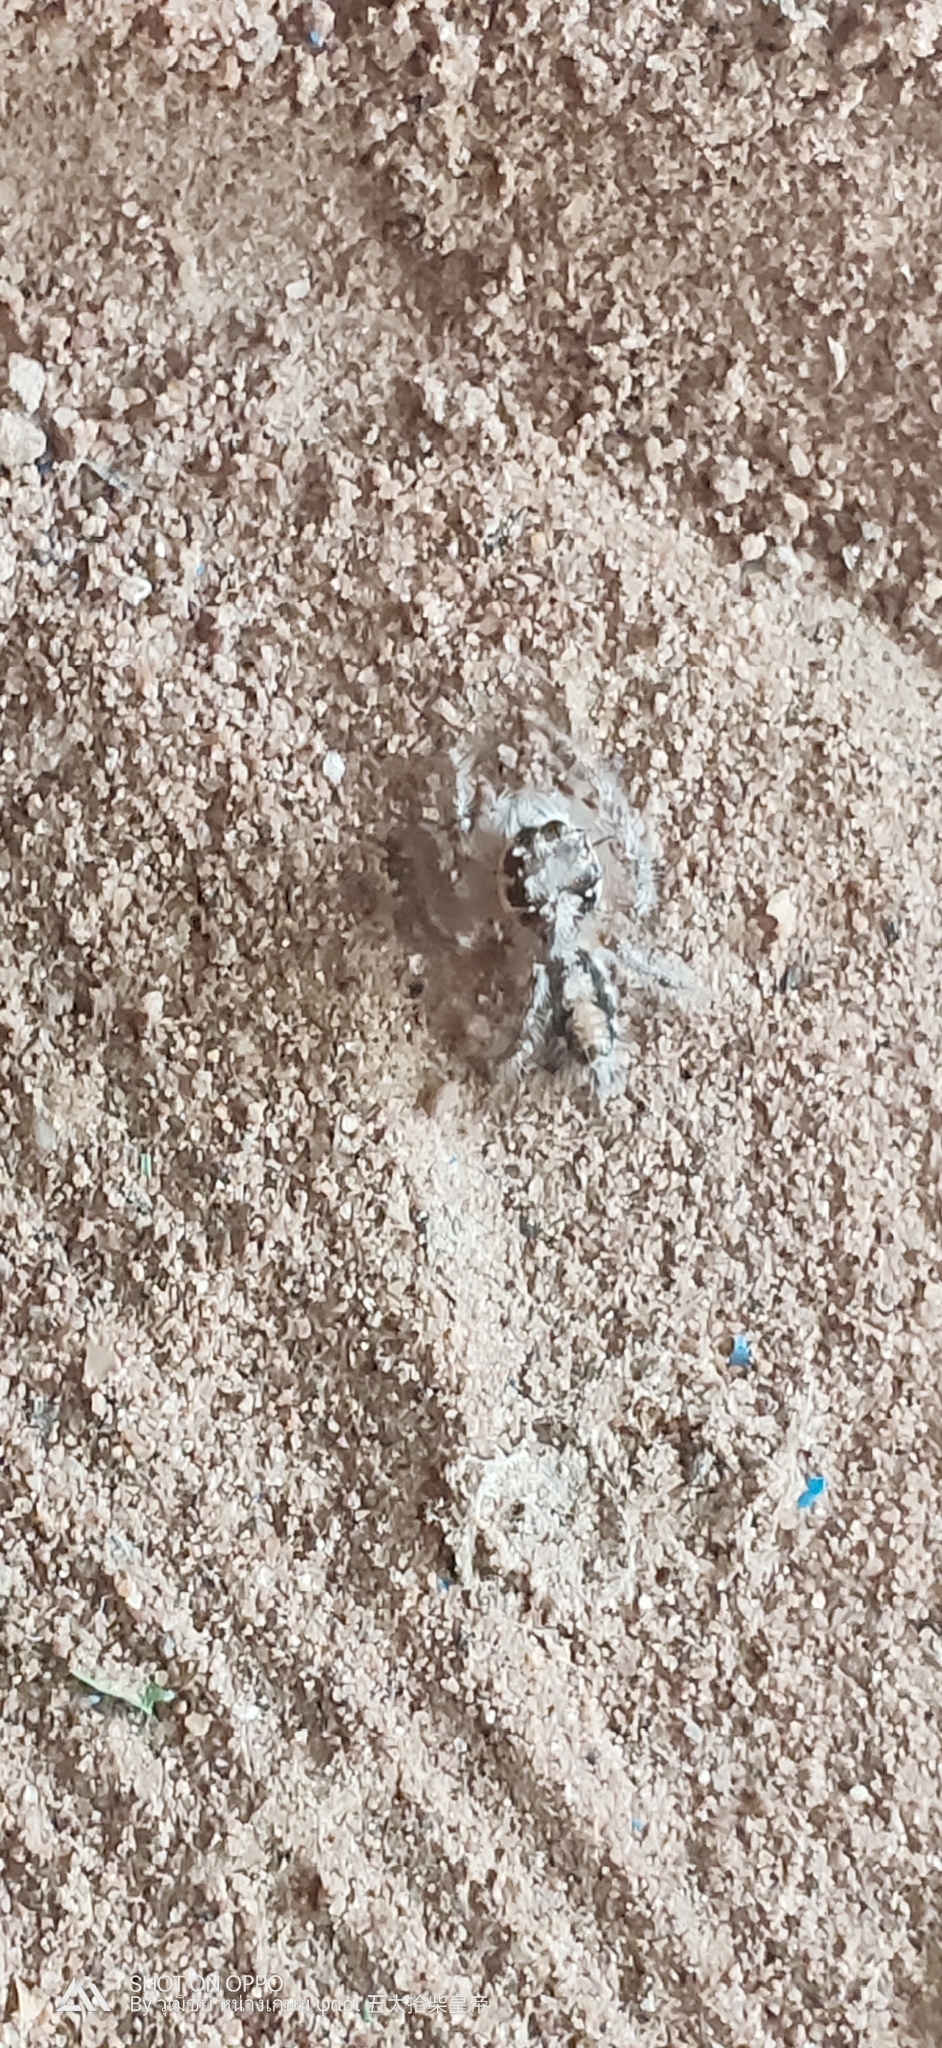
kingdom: Animalia
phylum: Arthropoda
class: Arachnida
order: Araneae
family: Salticidae
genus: Hyllus
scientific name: Hyllus semicupreus
